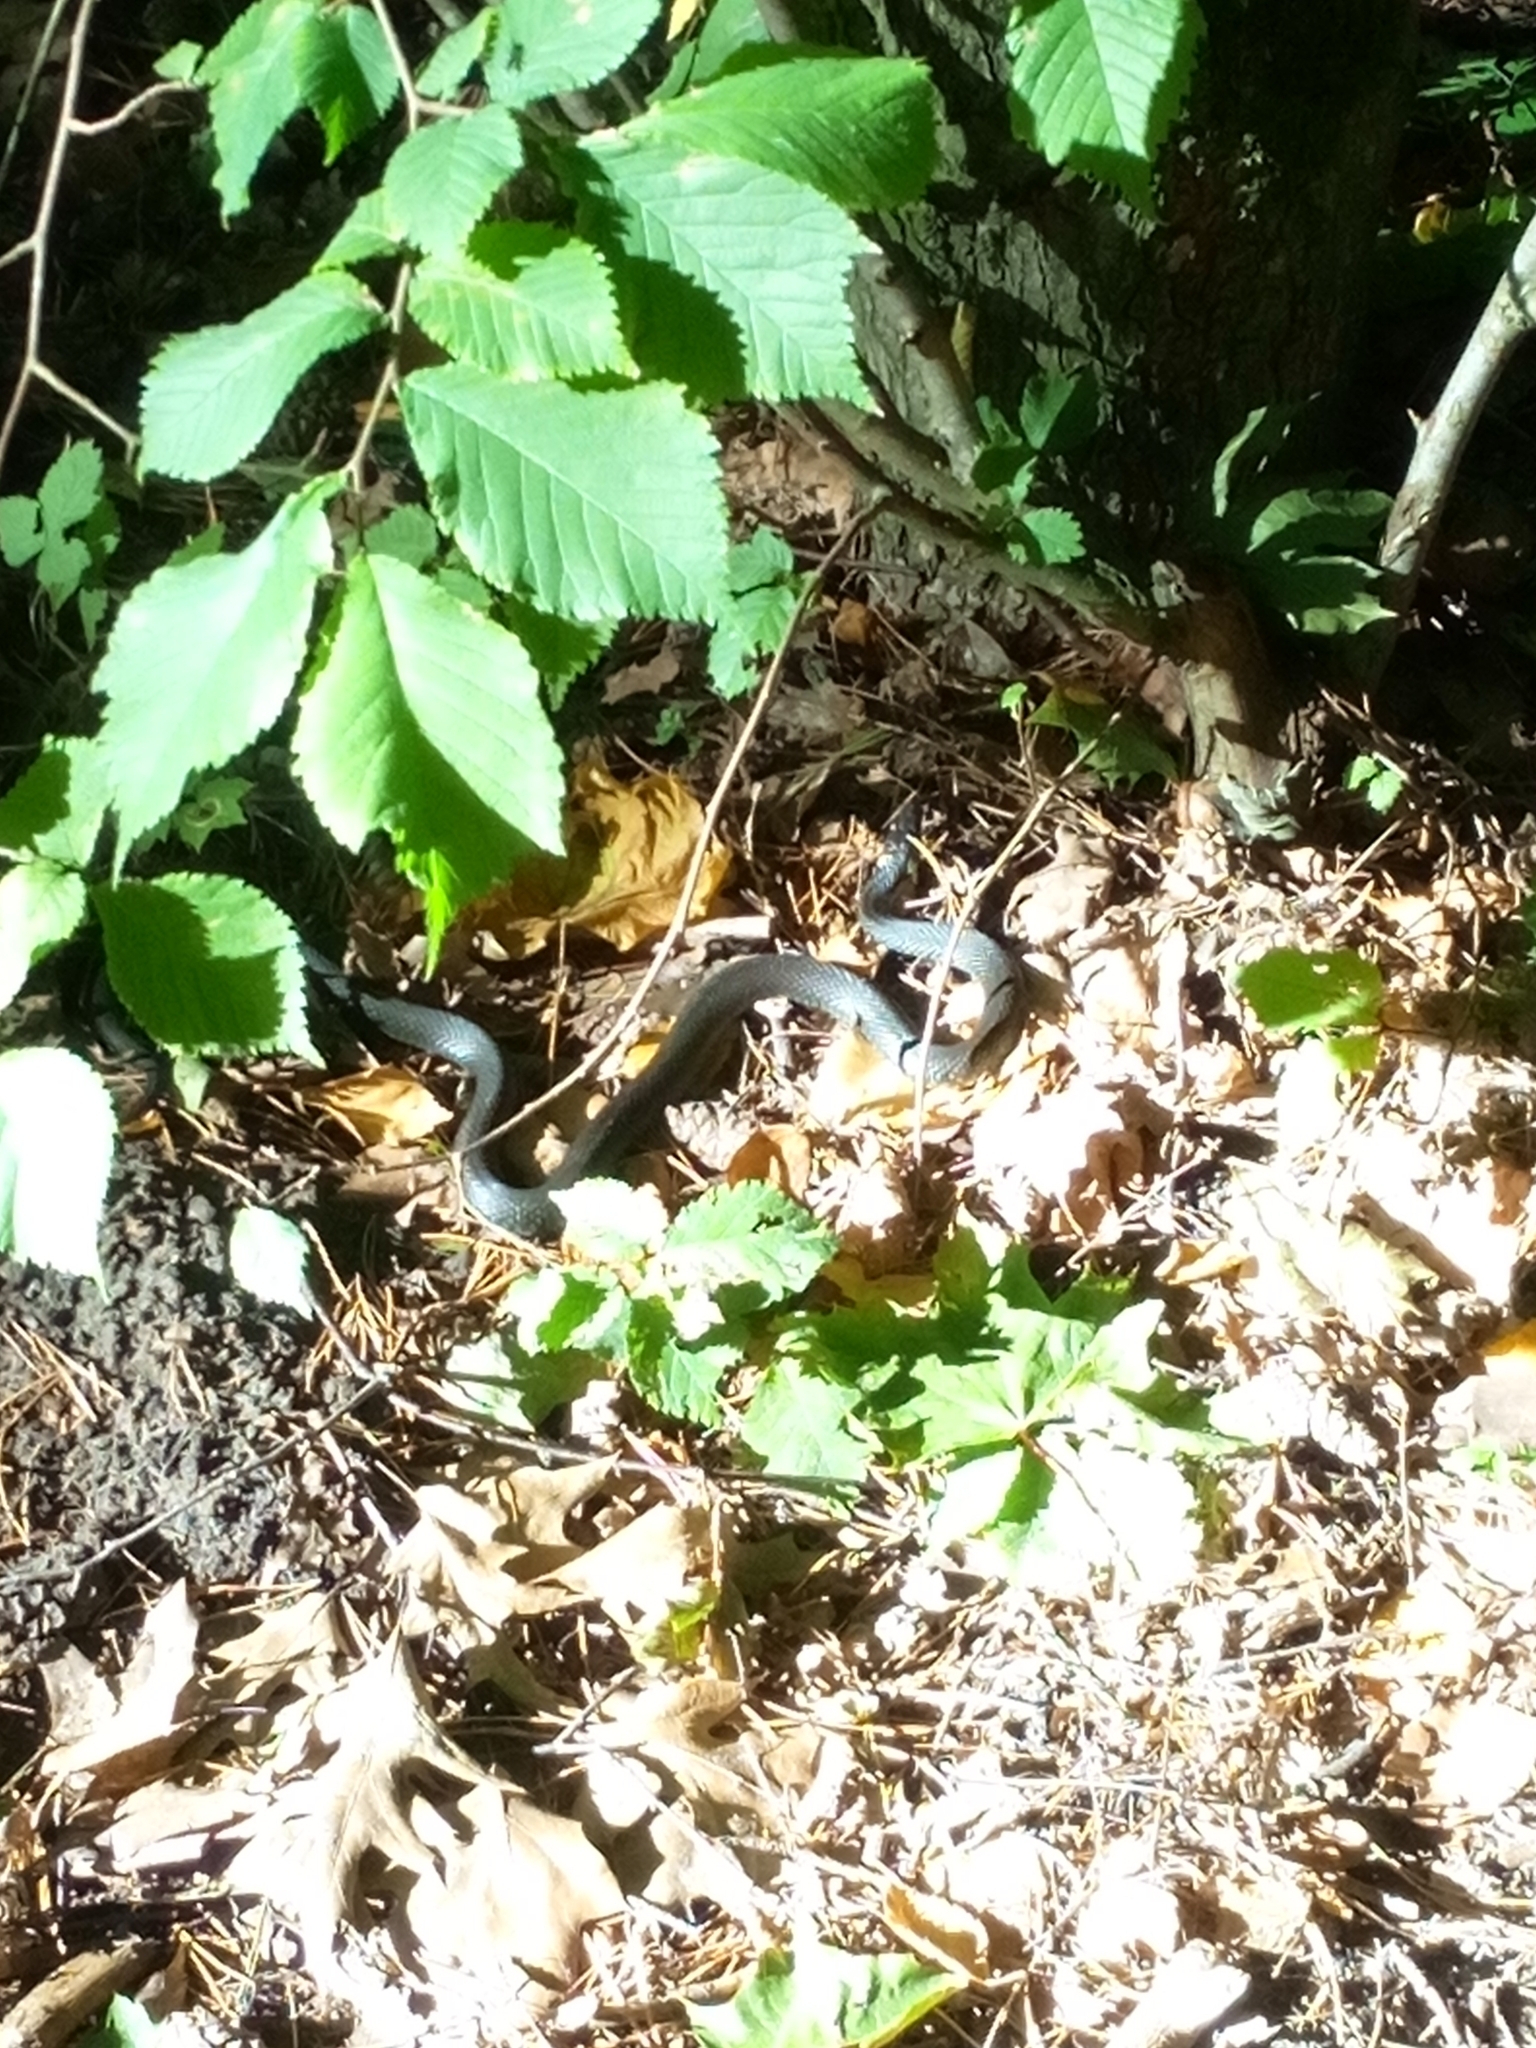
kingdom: Animalia
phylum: Chordata
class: Squamata
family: Colubridae
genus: Natrix
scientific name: Natrix natrix
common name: Grass snake
